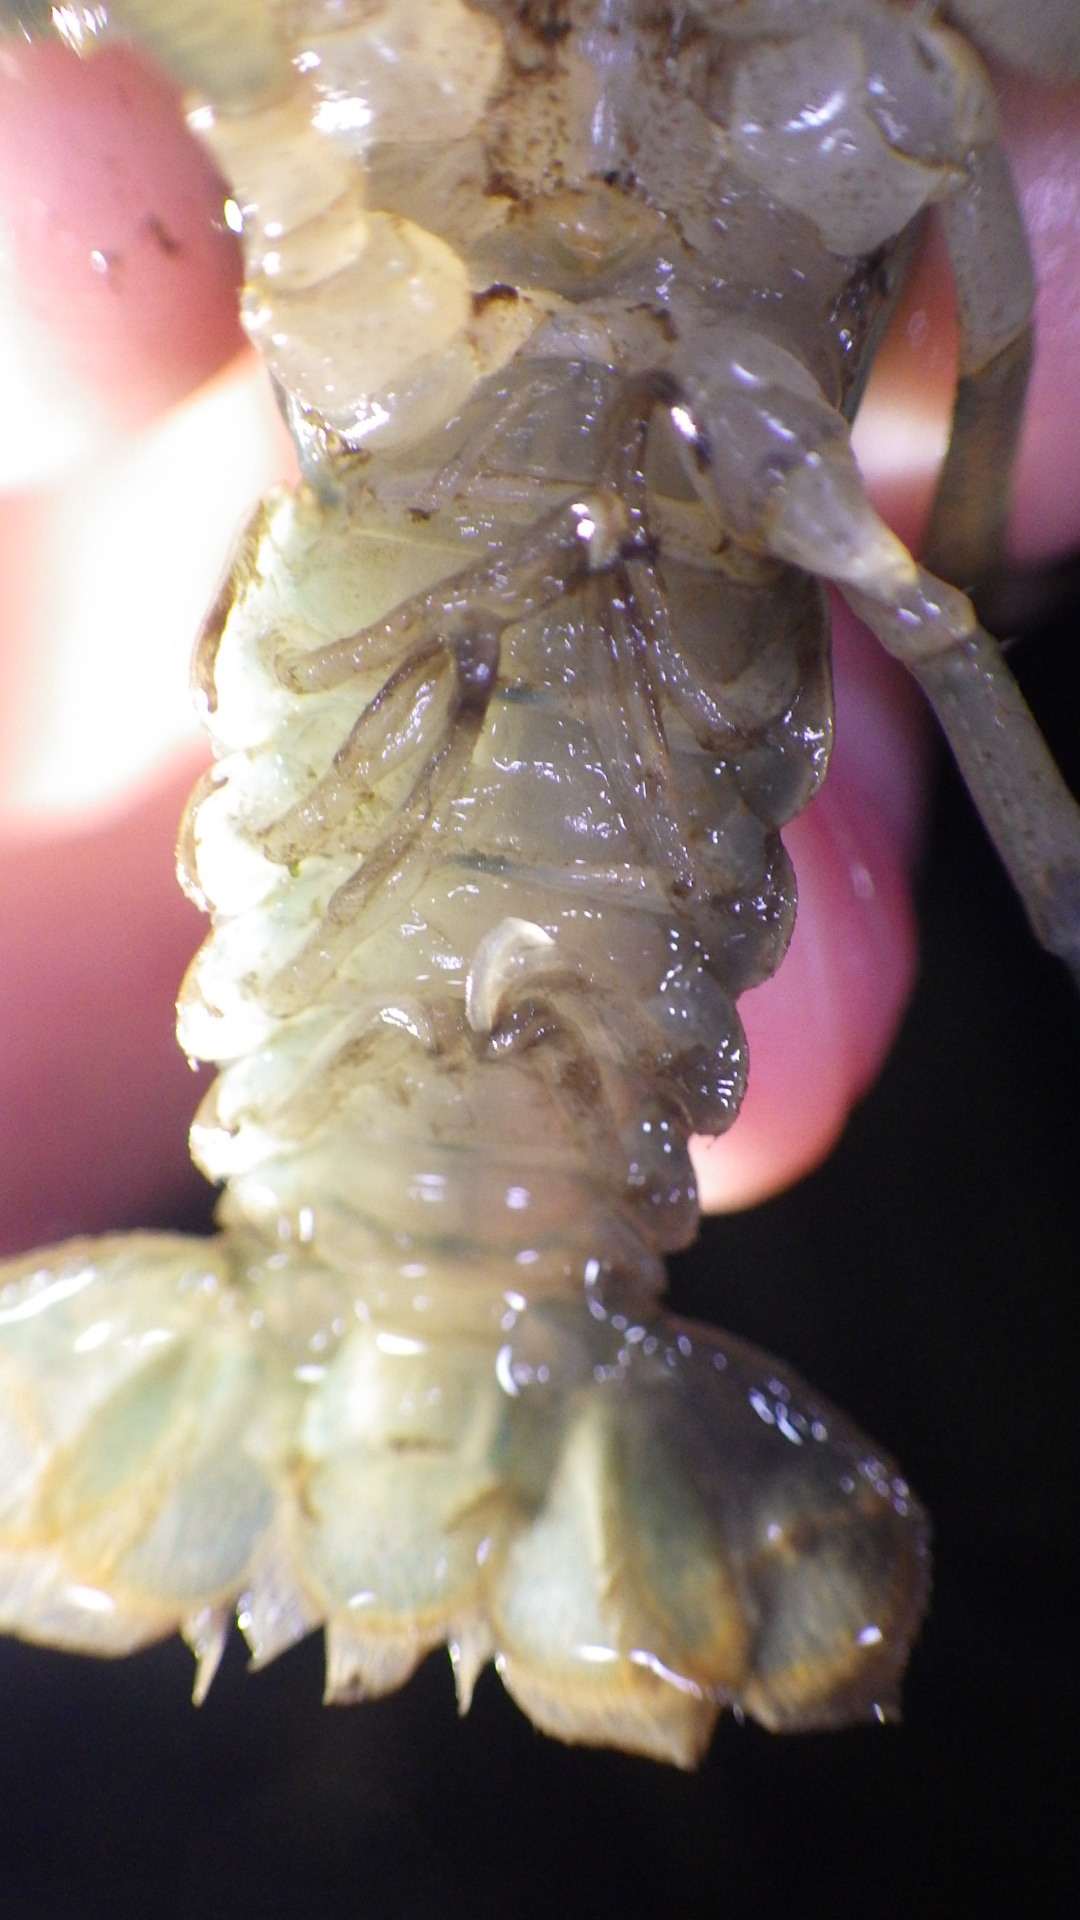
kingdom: Animalia
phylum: Arthropoda
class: Malacostraca
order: Decapoda
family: Cambaridae
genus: Cambarus
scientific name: Cambarus bartonii
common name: Appalachian brook crayfish
